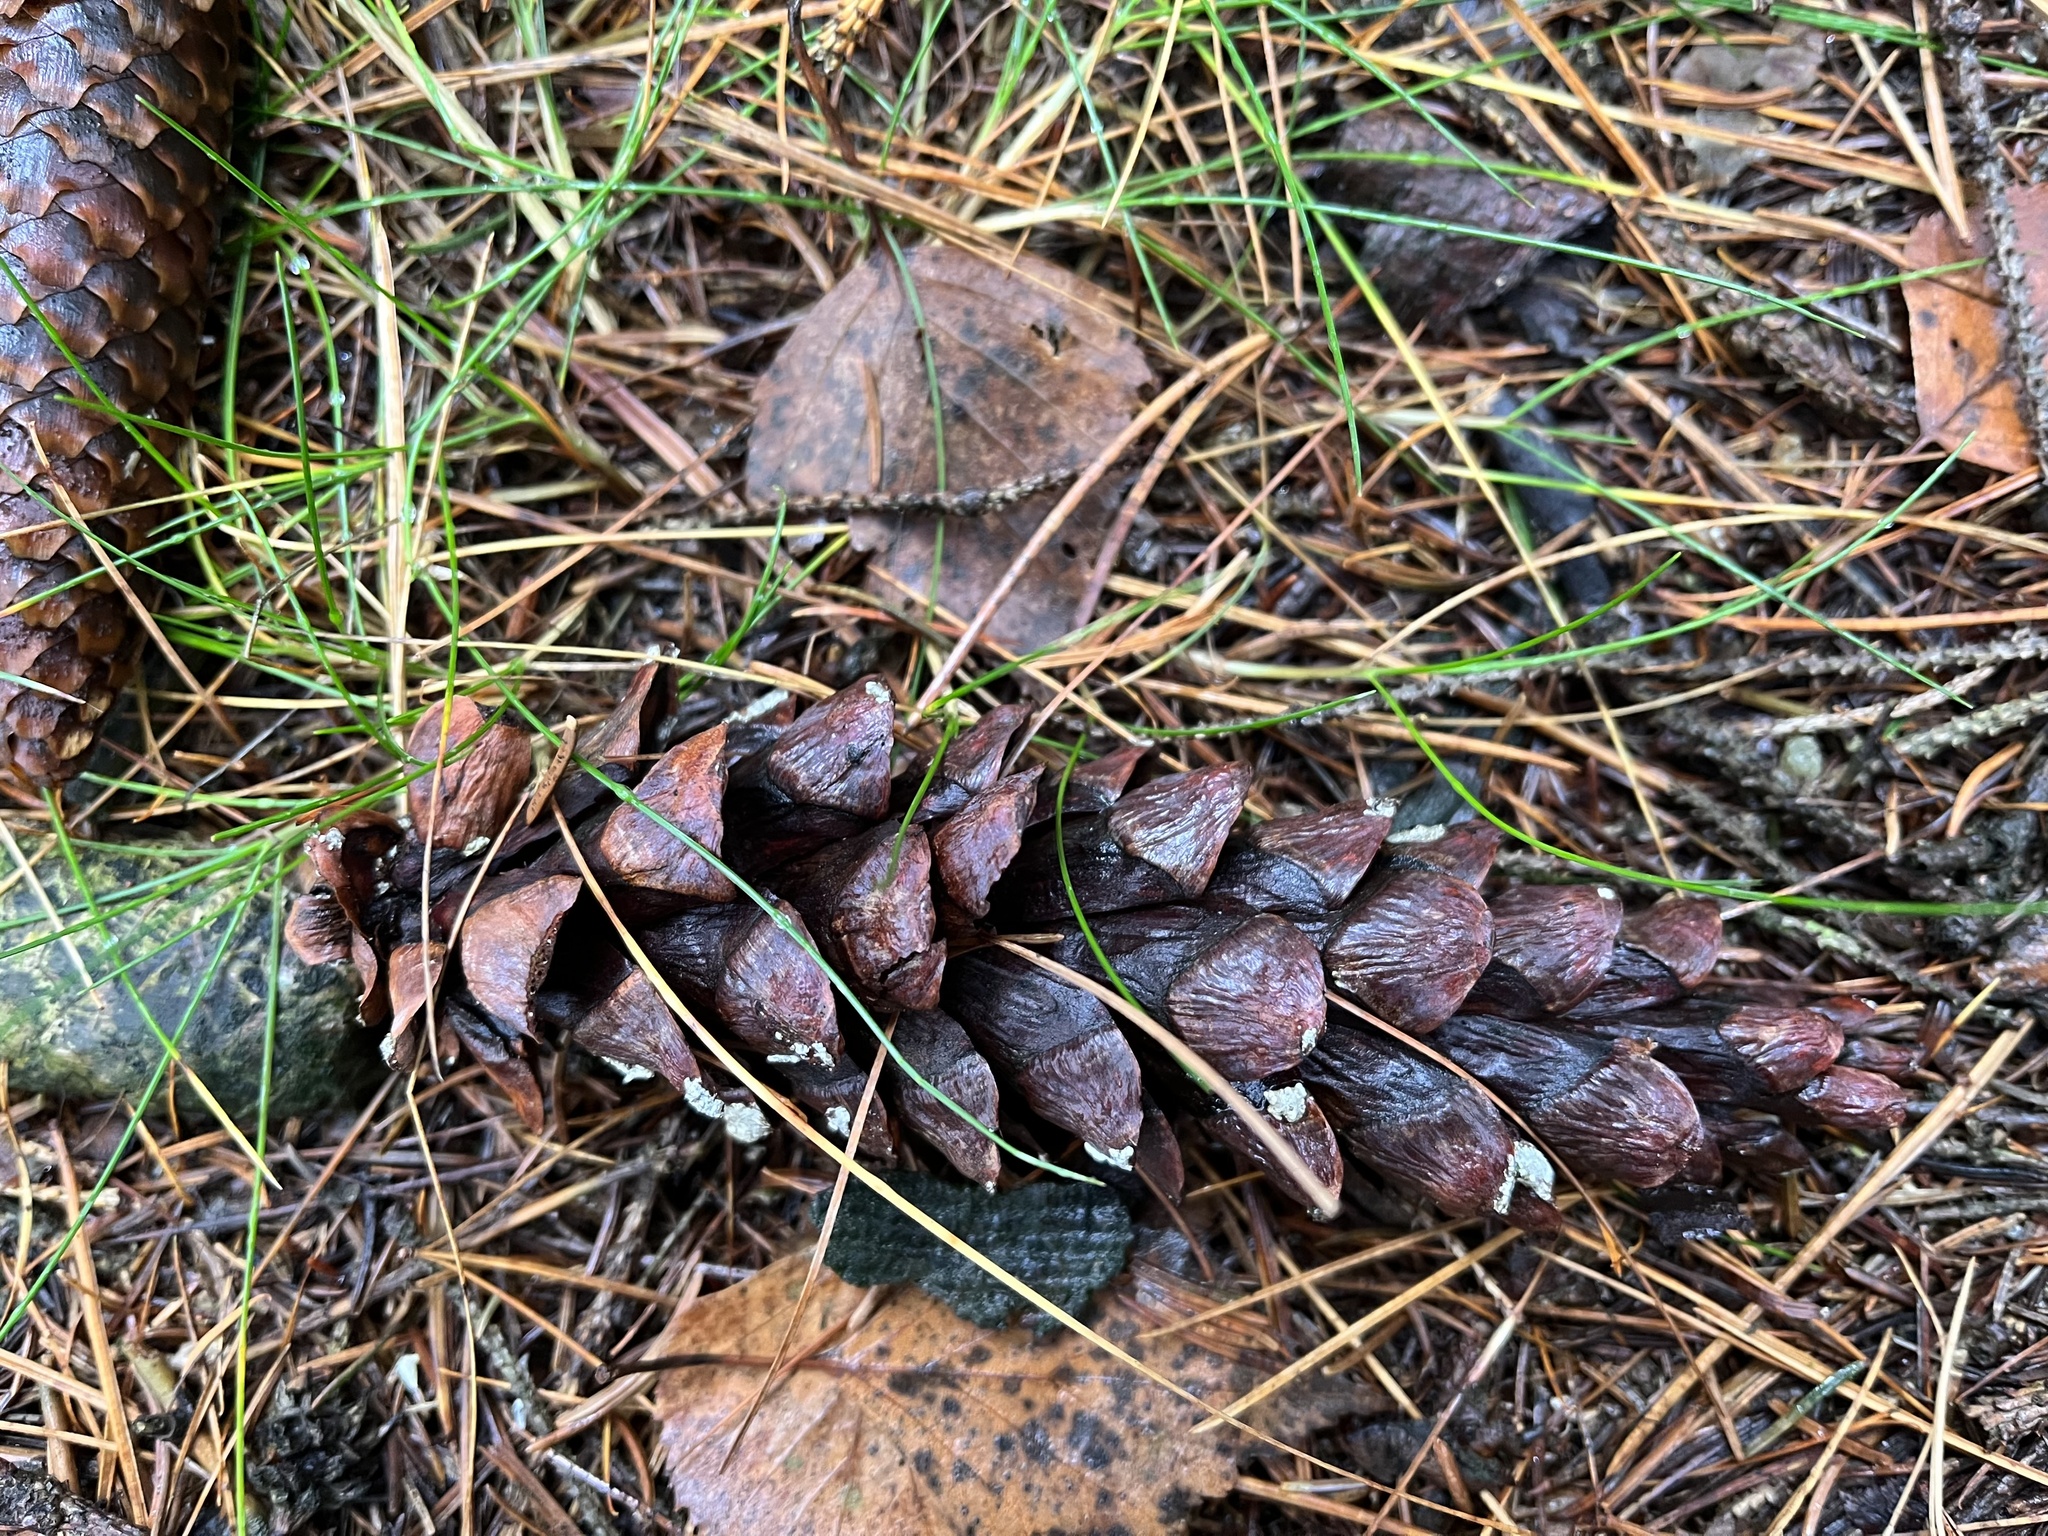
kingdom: Plantae
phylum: Tracheophyta
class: Pinopsida
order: Pinales
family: Pinaceae
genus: Pinus
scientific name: Pinus strobus
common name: Weymouth pine
